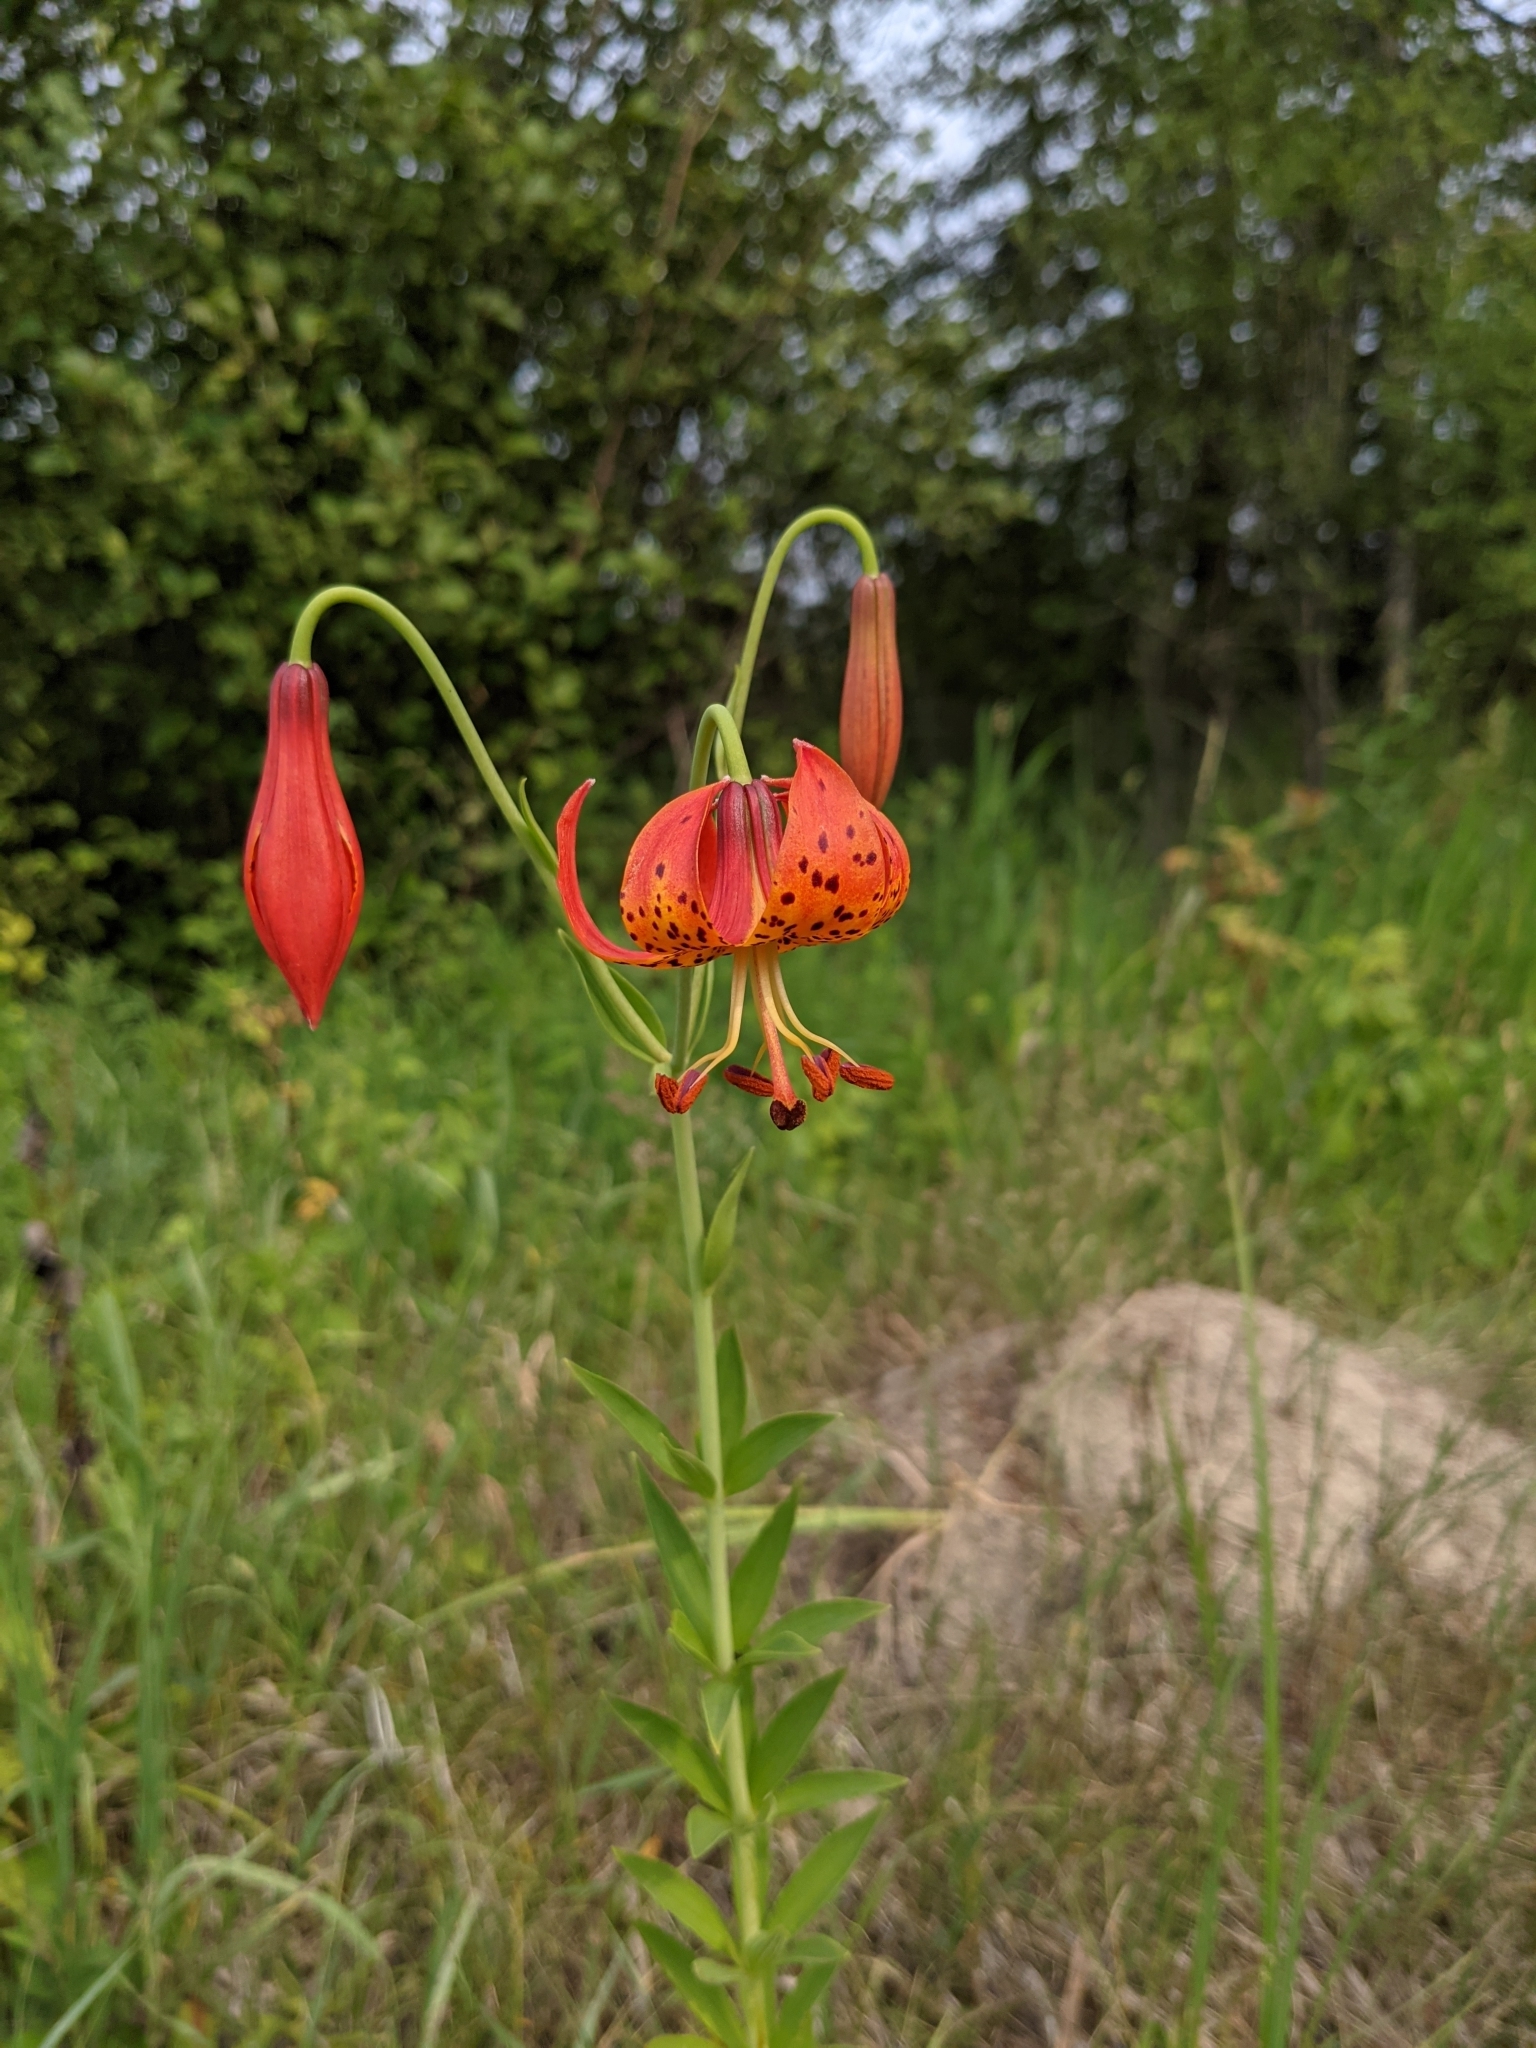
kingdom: Plantae
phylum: Tracheophyta
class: Liliopsida
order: Liliales
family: Liliaceae
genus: Lilium
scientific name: Lilium michiganense
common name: Michigan lily
